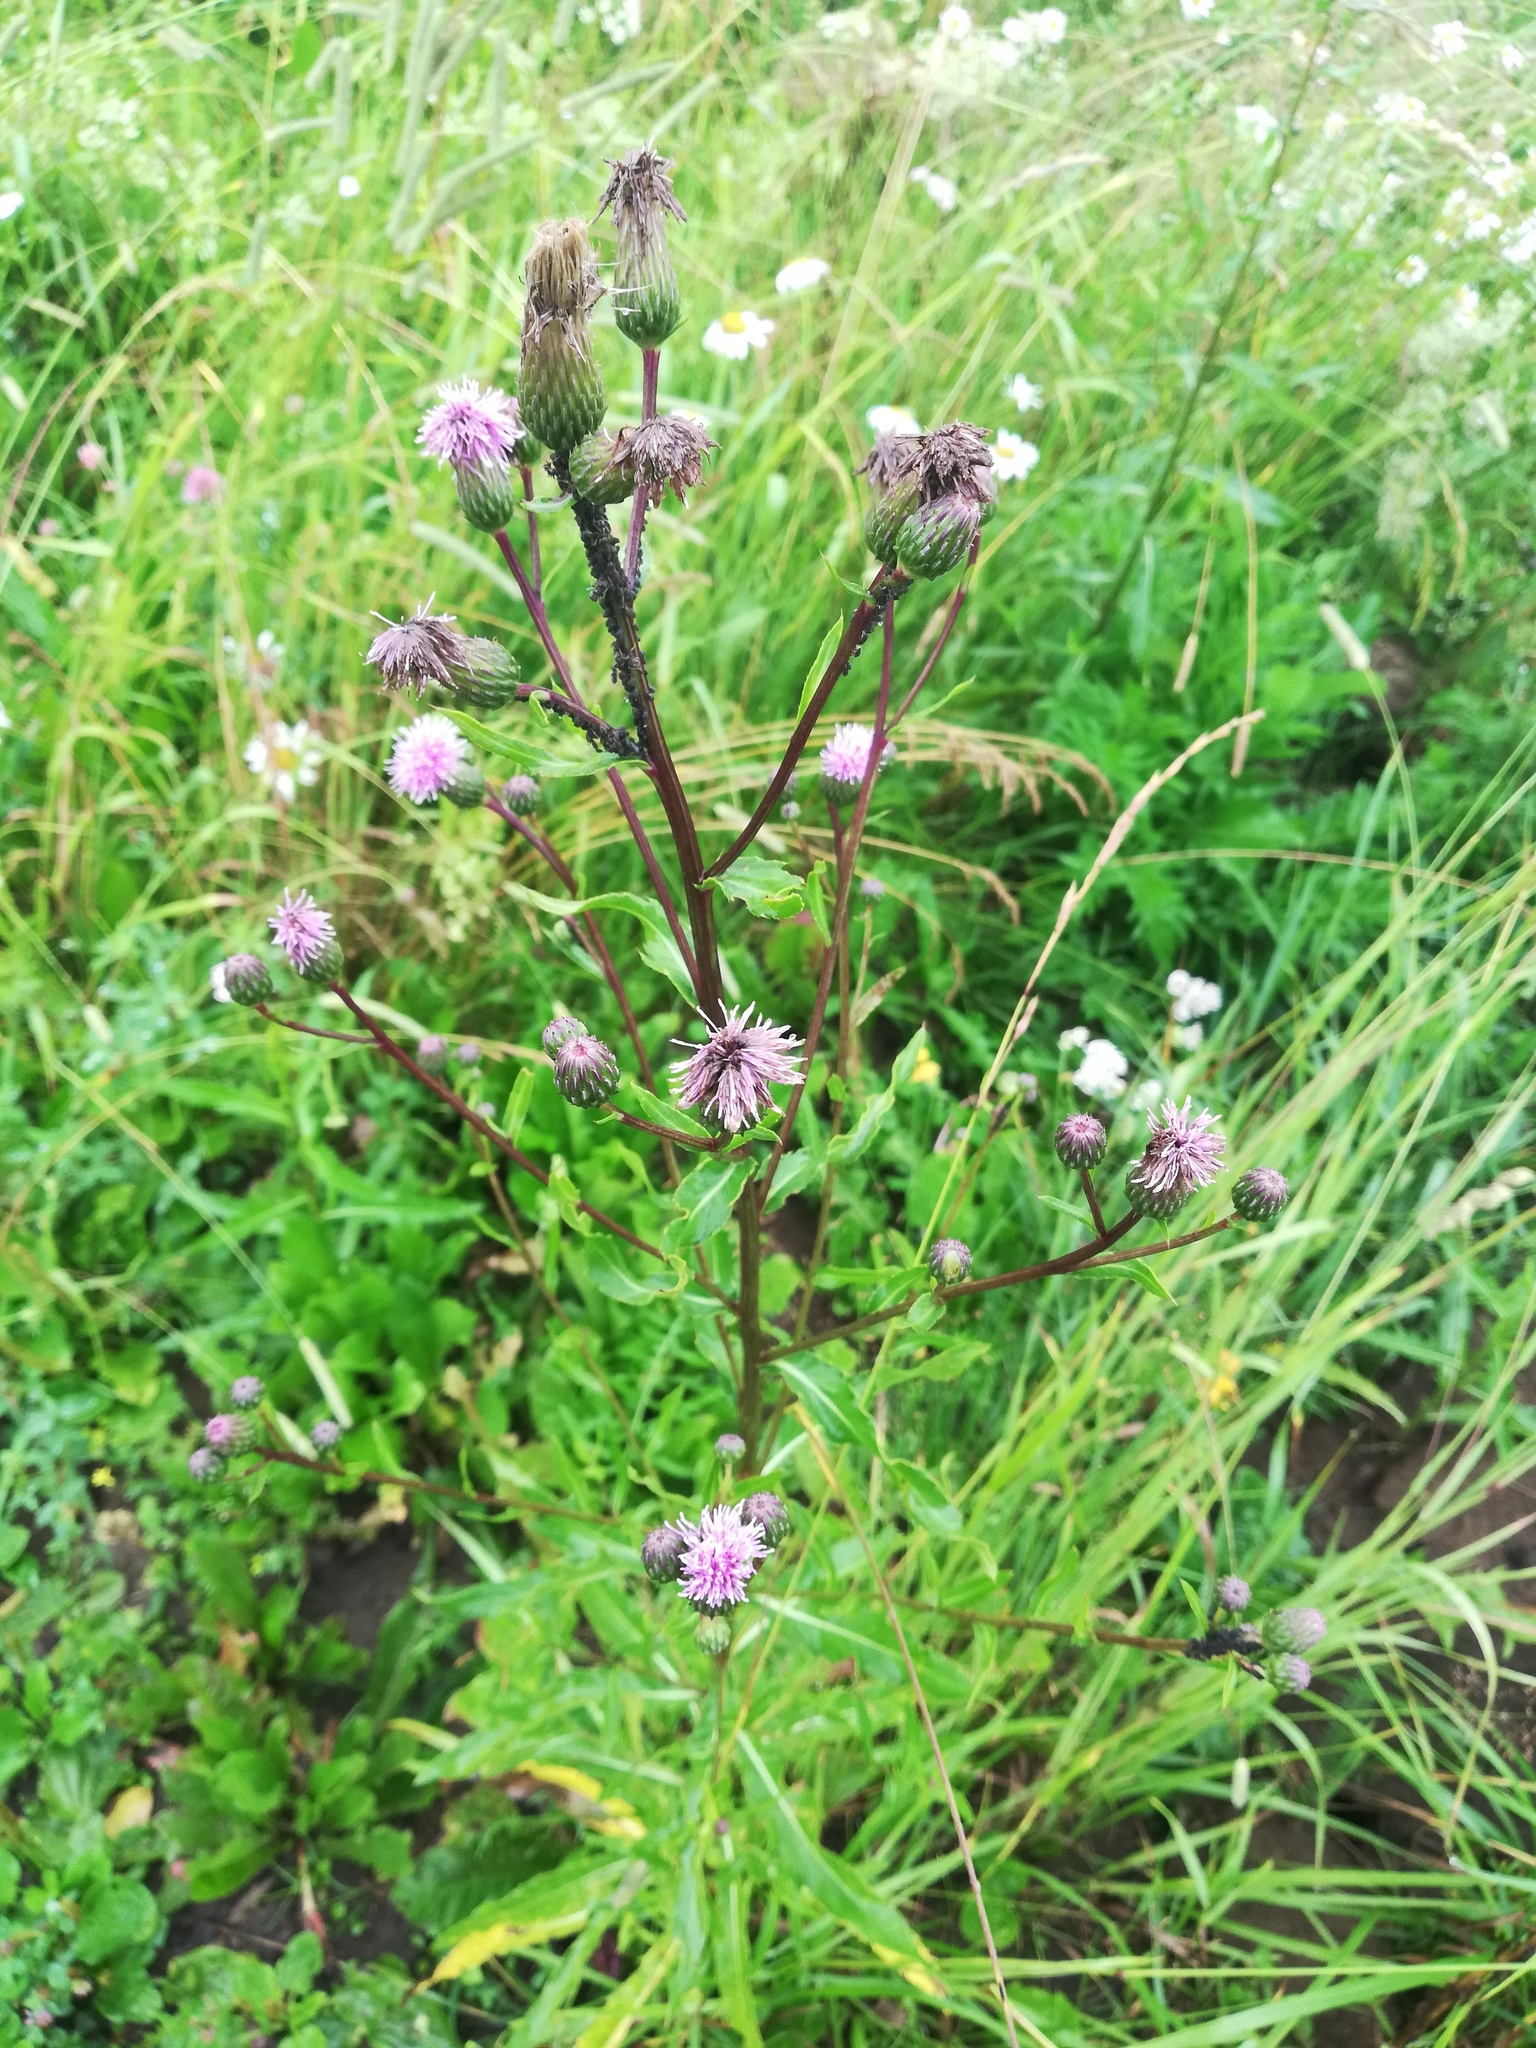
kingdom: Plantae
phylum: Tracheophyta
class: Magnoliopsida
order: Asterales
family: Asteraceae
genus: Cirsium
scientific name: Cirsium arvense
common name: Creeping thistle
